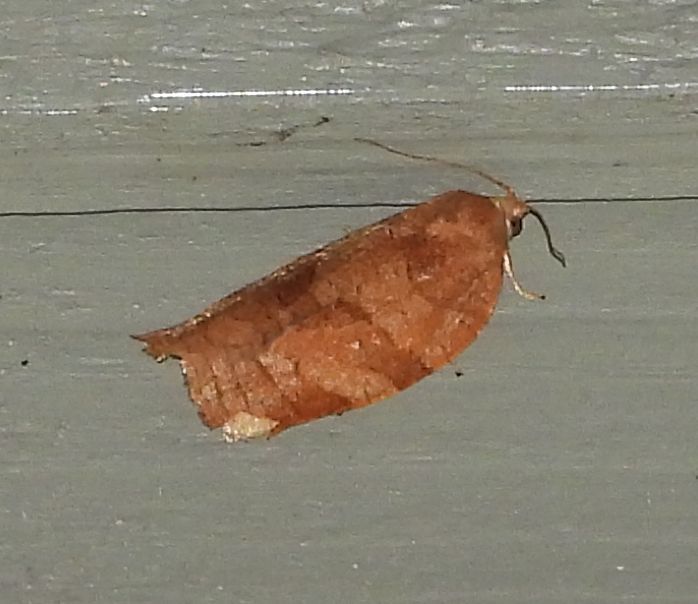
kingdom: Animalia
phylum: Arthropoda
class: Insecta
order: Lepidoptera
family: Tortricidae
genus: Choristoneura
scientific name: Choristoneura rosaceana
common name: Oblique-banded leafroller moth
